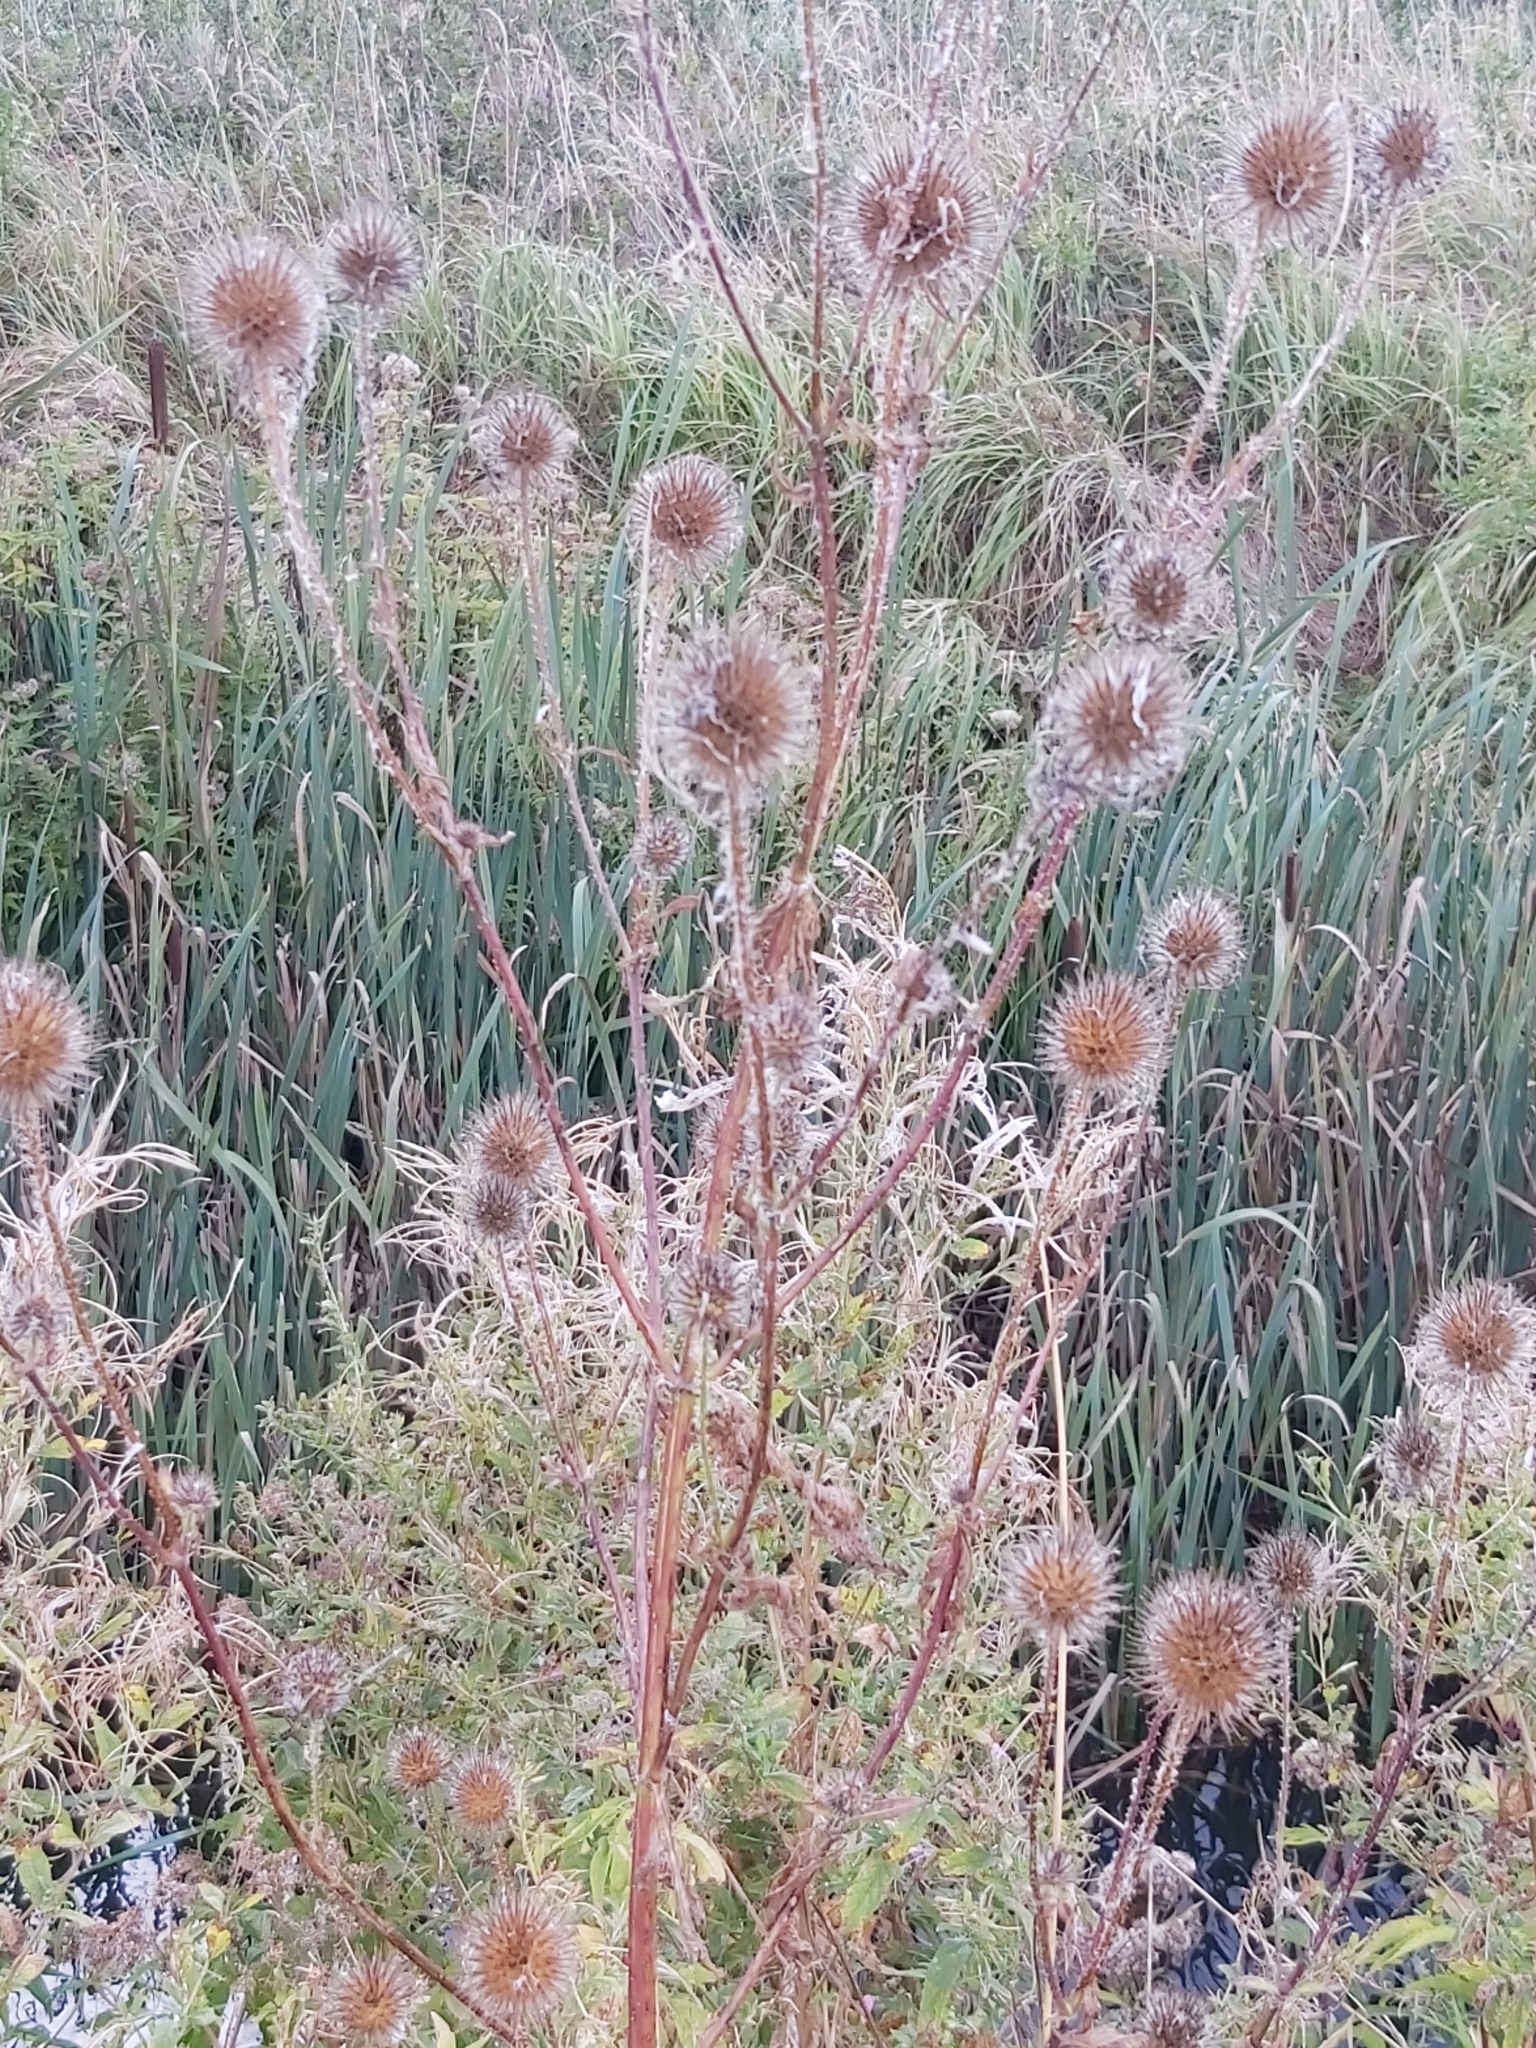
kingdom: Plantae
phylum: Tracheophyta
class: Magnoliopsida
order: Dipsacales
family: Caprifoliaceae
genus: Dipsacus
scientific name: Dipsacus strigosus
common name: Yellow-flowered teasel
